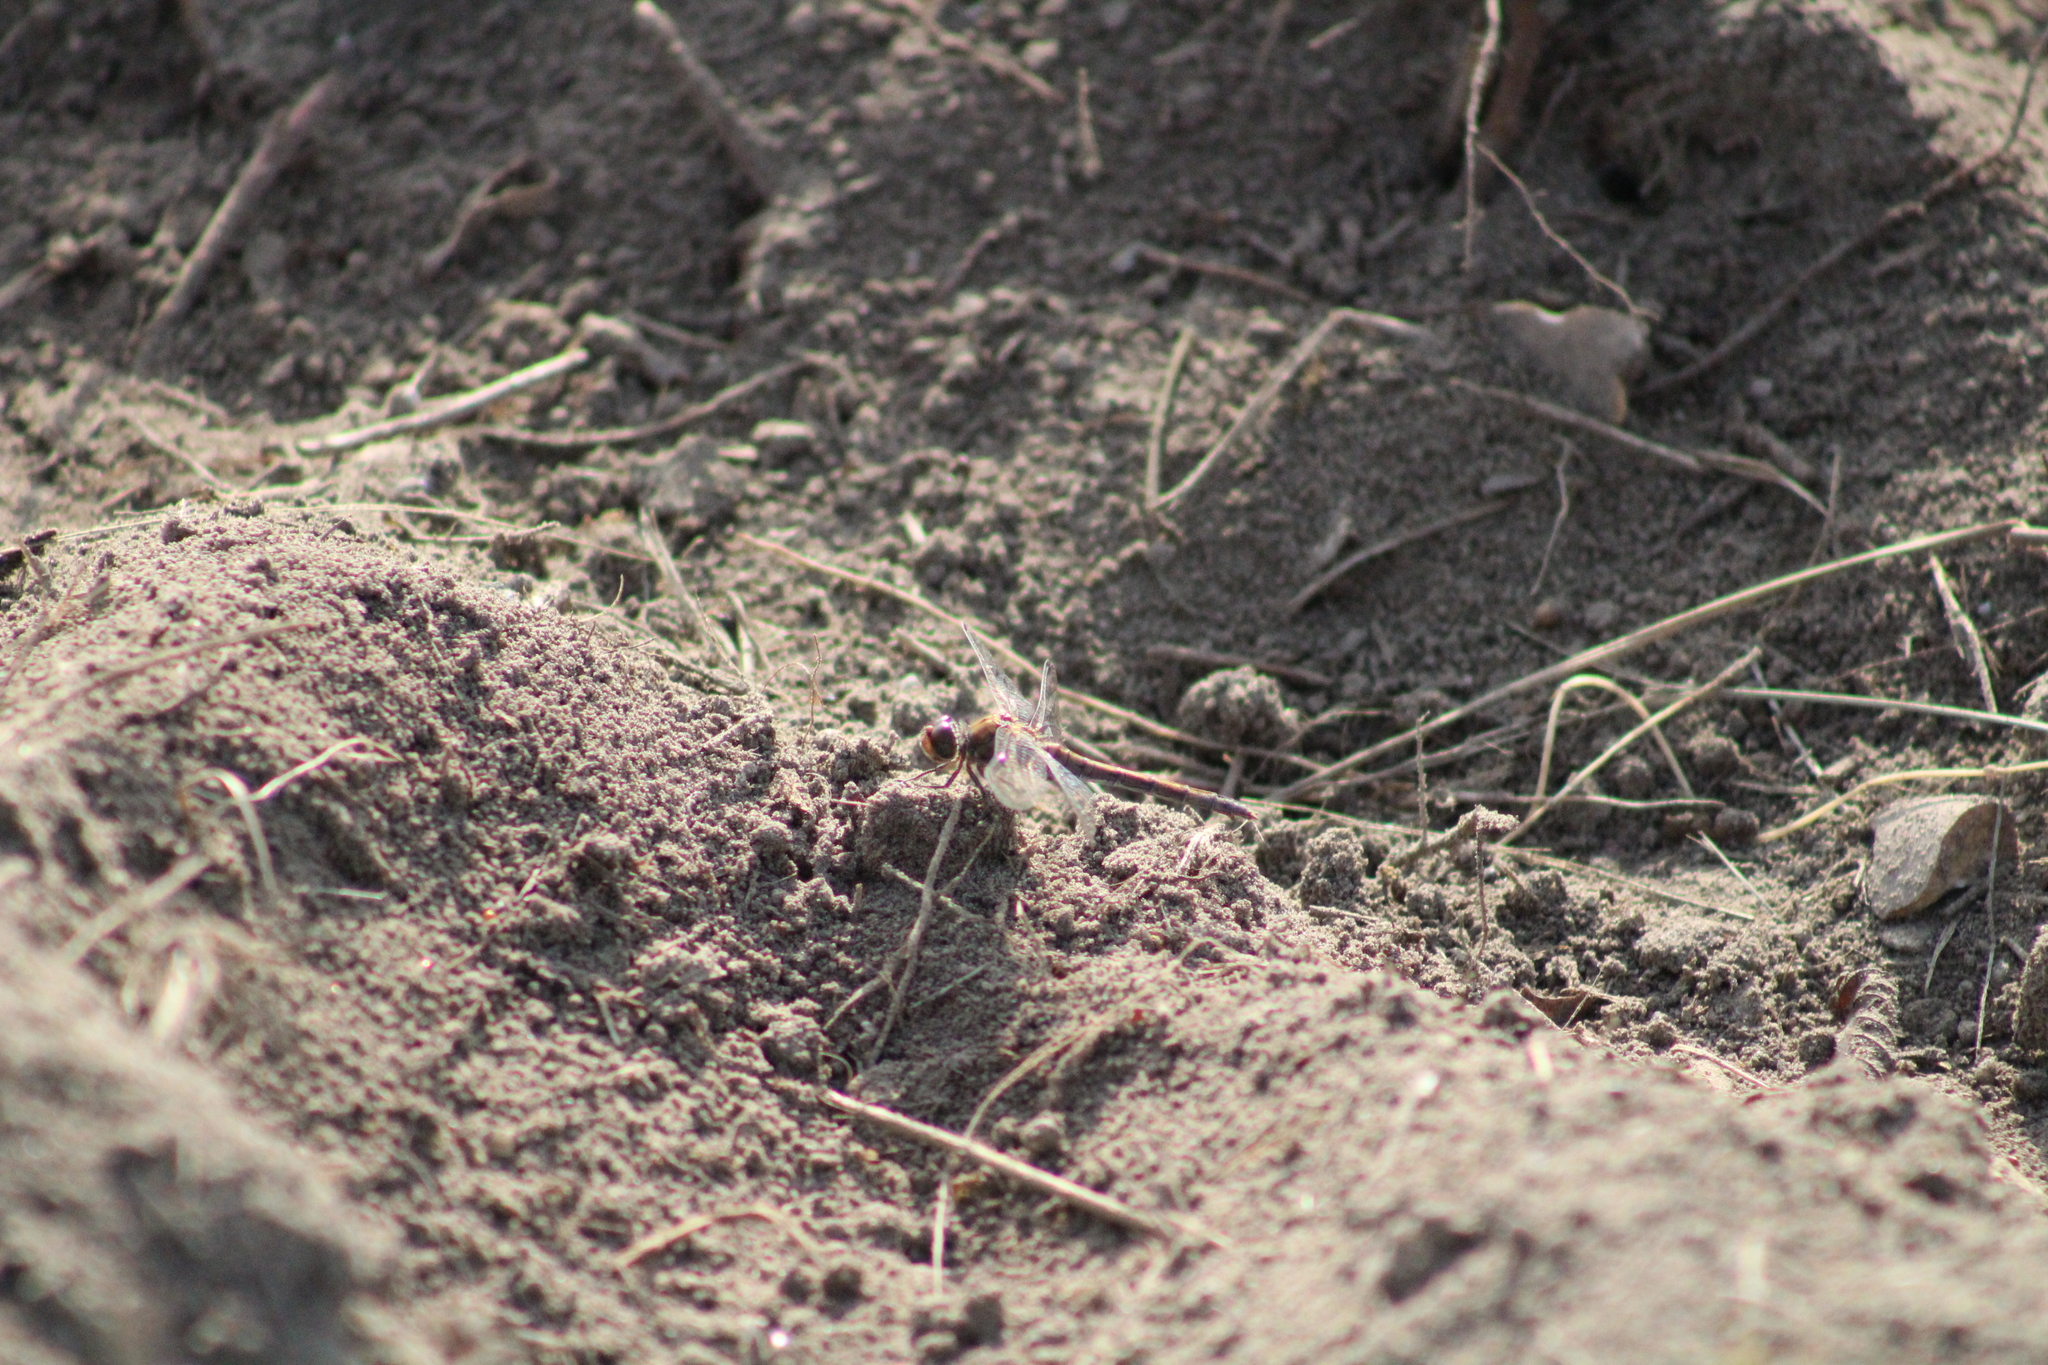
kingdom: Animalia
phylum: Arthropoda
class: Insecta
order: Odonata
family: Libellulidae
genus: Sympetrum
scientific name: Sympetrum striolatum
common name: Common darter
